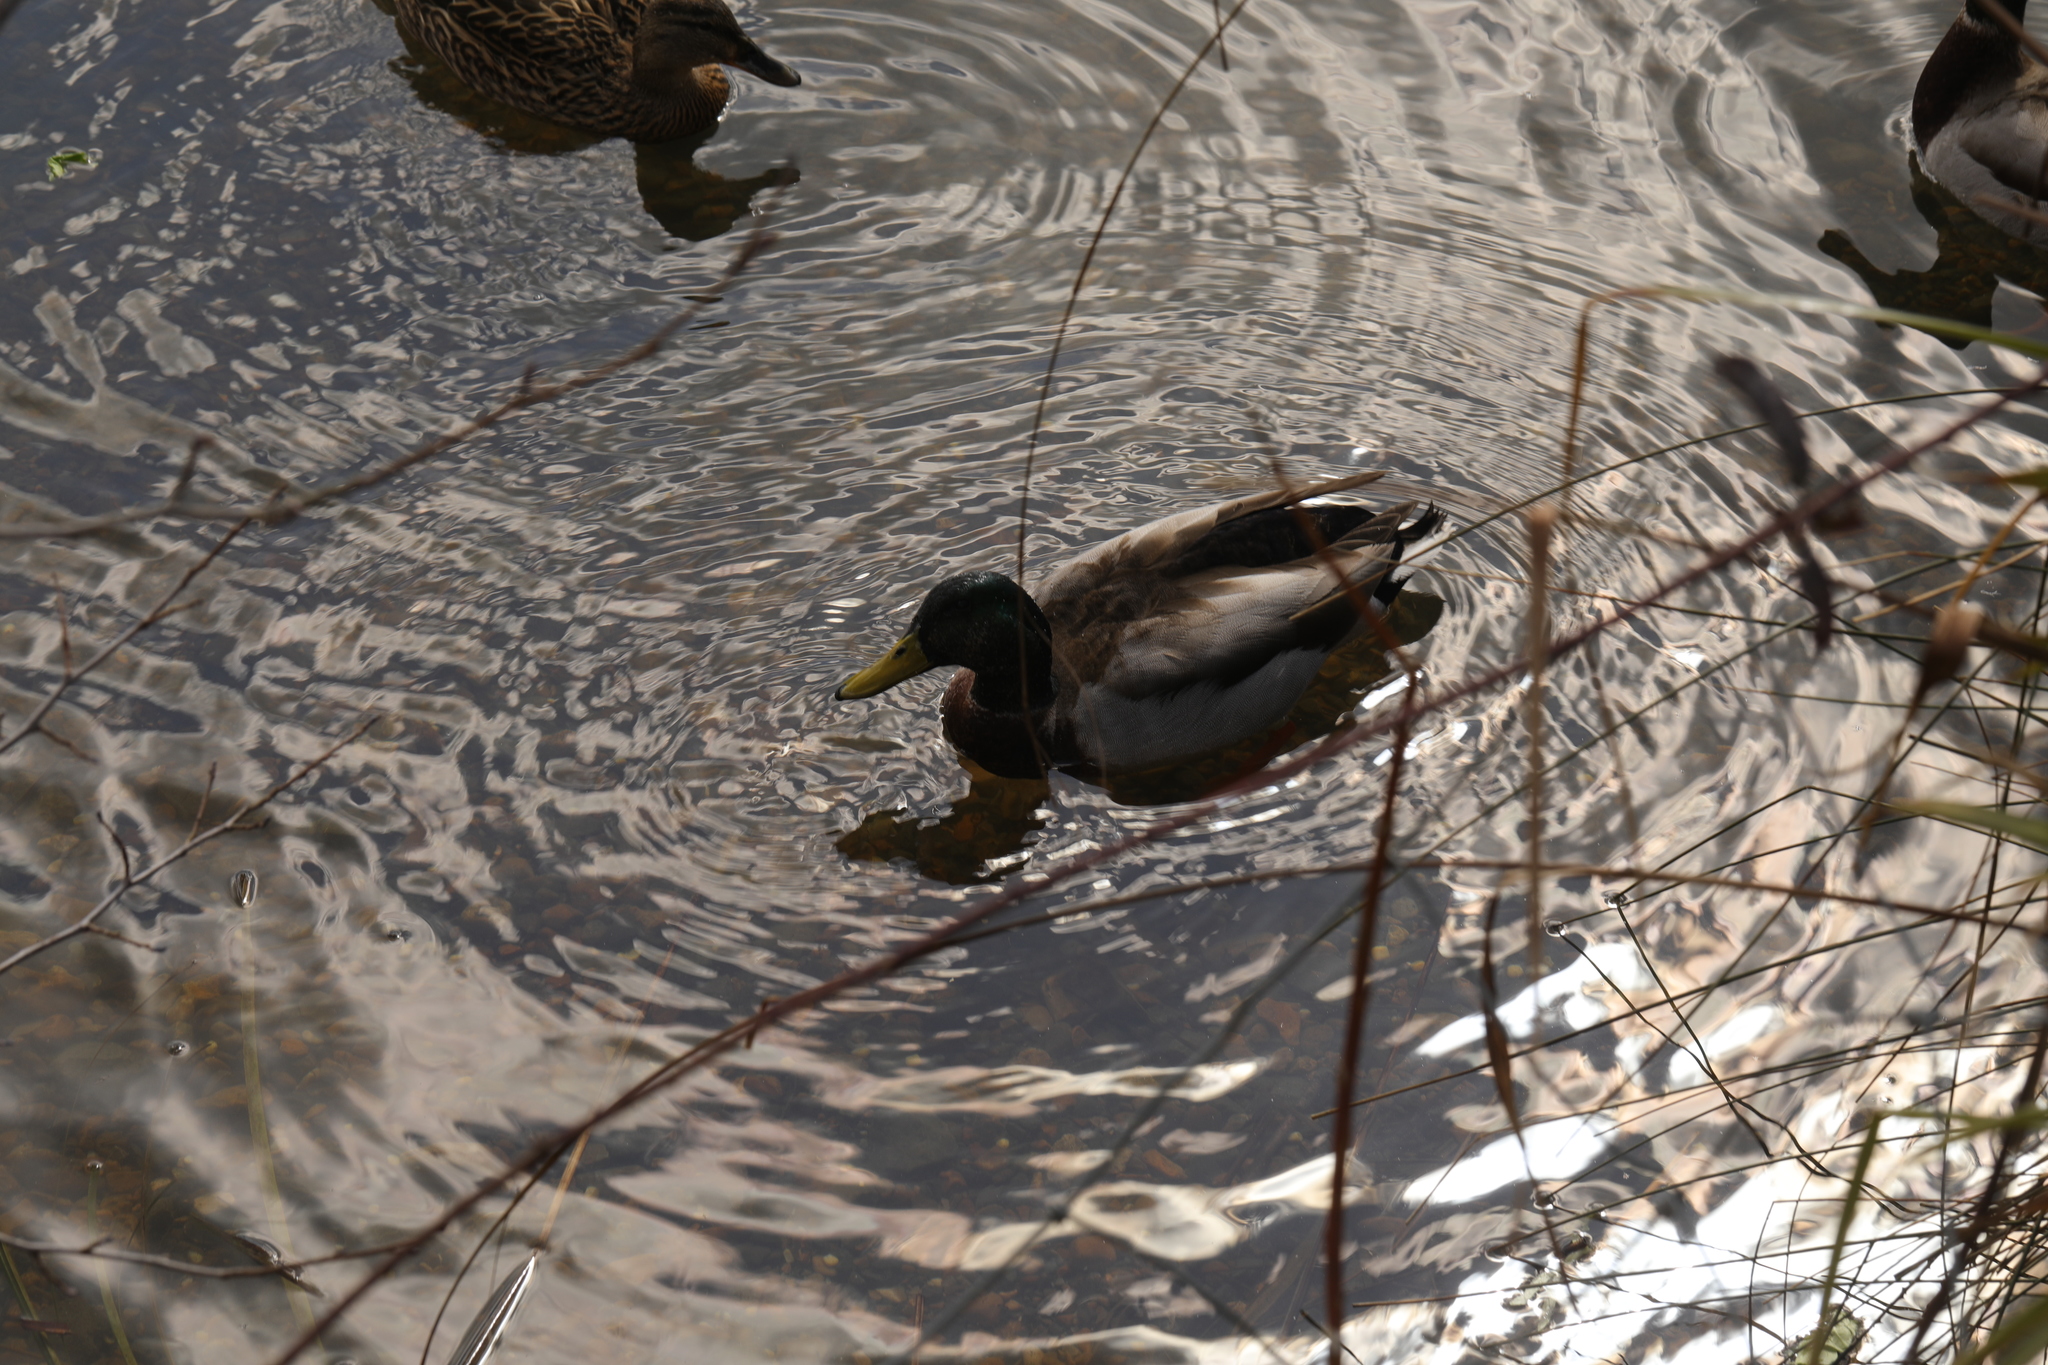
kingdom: Animalia
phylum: Chordata
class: Aves
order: Anseriformes
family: Anatidae
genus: Anas
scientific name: Anas platyrhynchos
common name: Mallard
